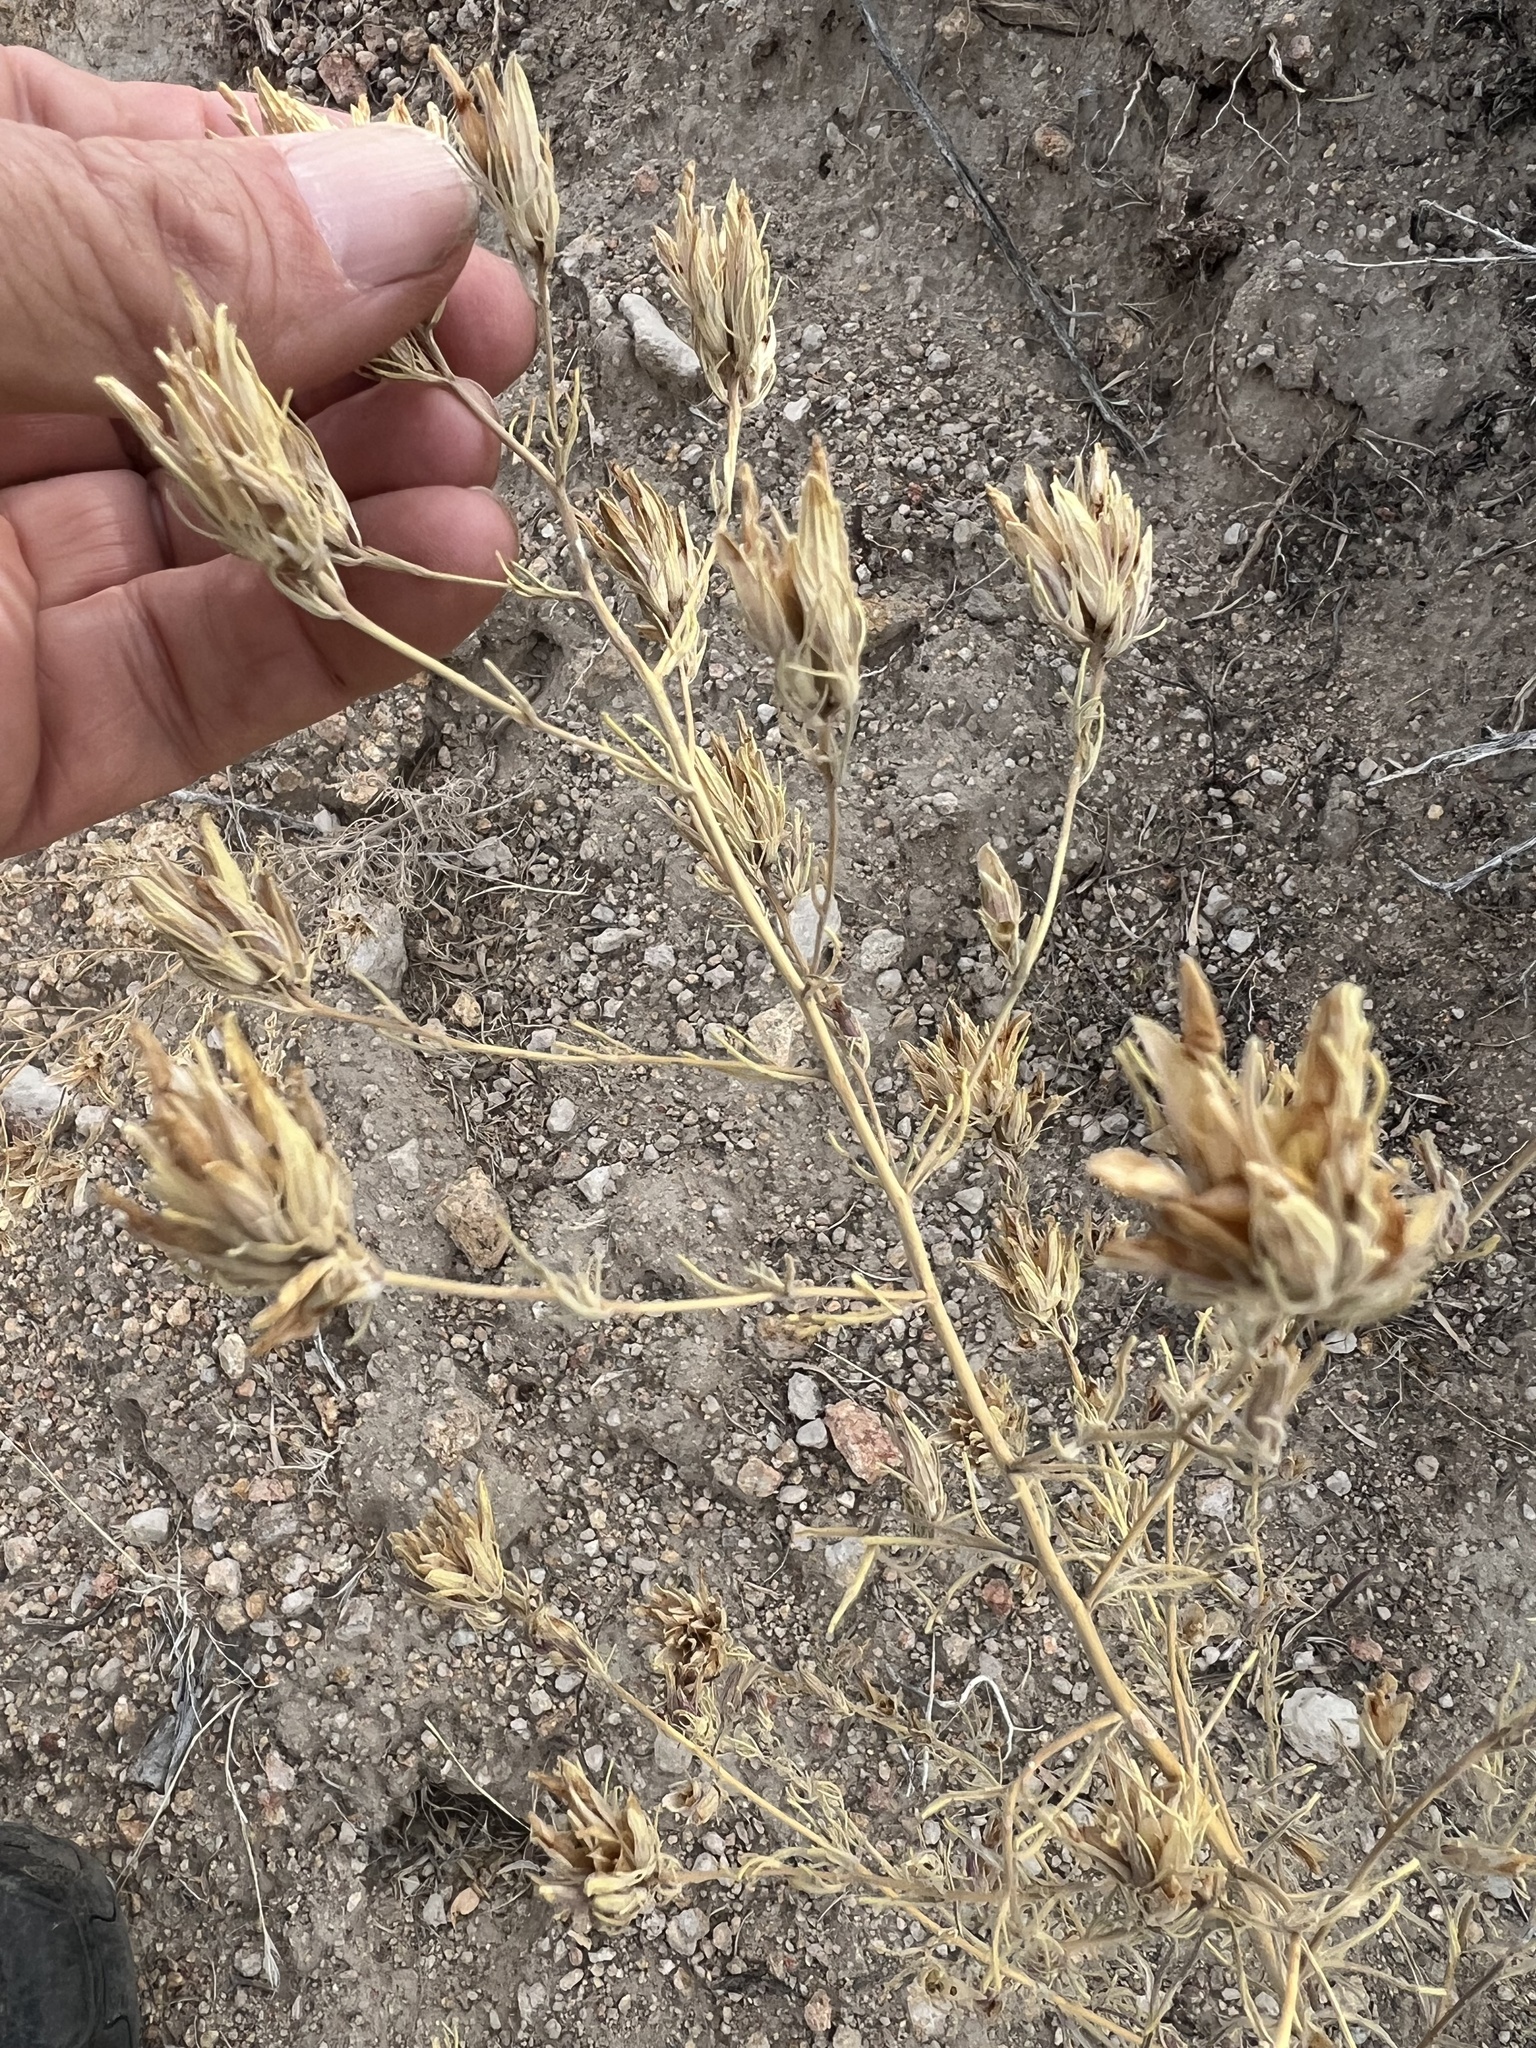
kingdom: Plantae
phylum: Tracheophyta
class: Magnoliopsida
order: Lamiales
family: Orobanchaceae
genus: Cordylanthus
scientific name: Cordylanthus ramosus
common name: Much-branched bird's-beak
